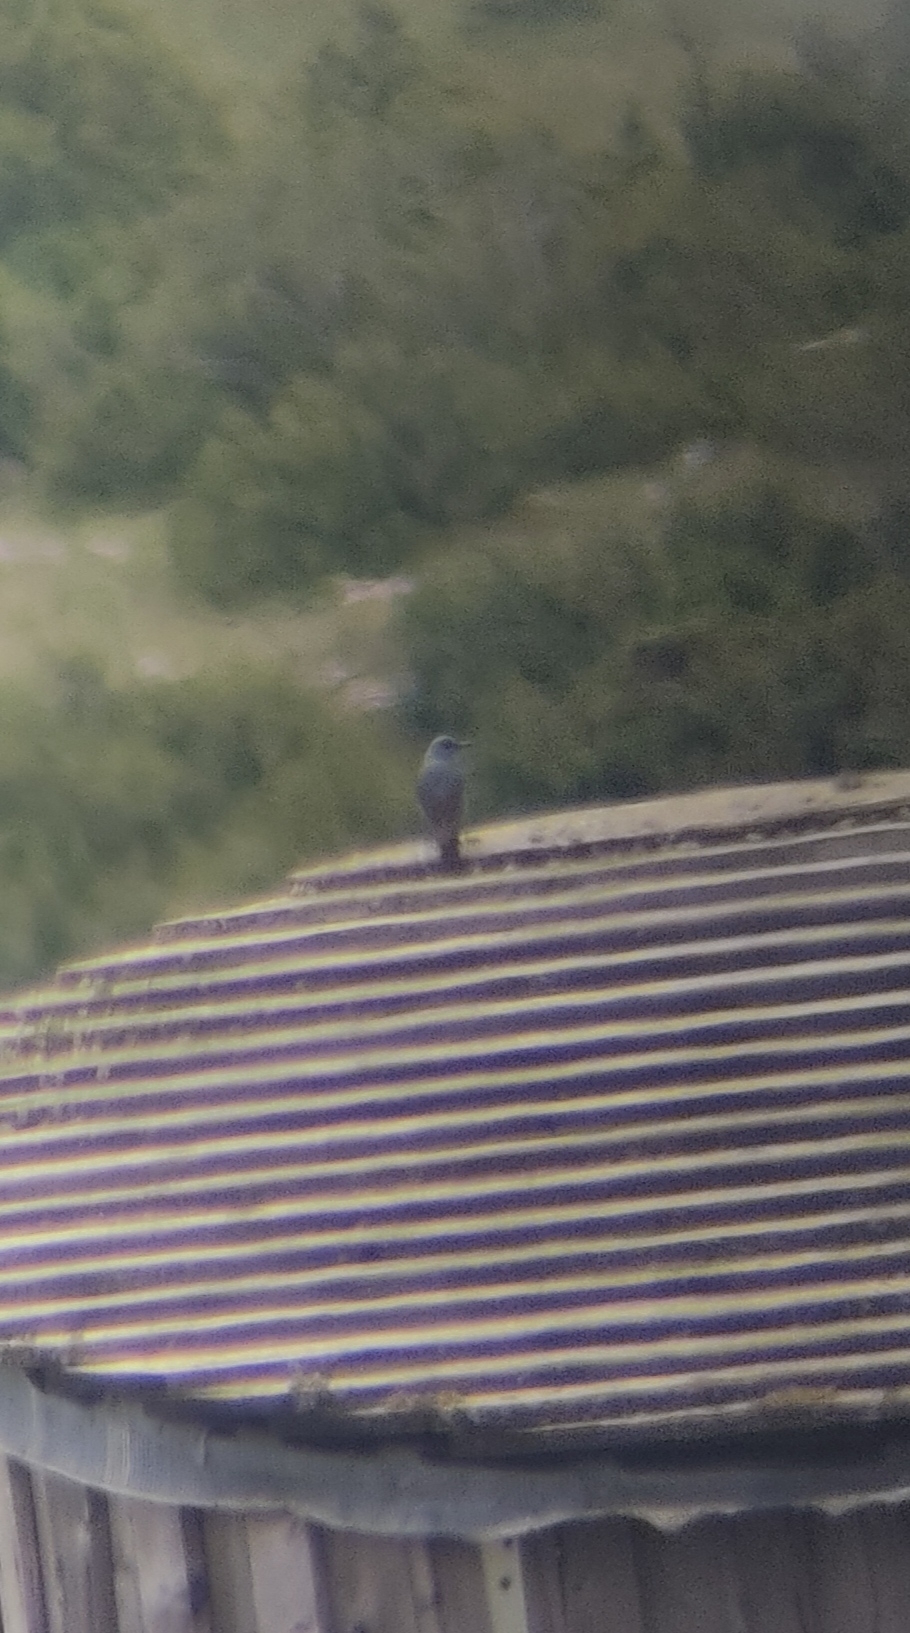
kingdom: Animalia
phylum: Chordata
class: Aves
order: Passeriformes
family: Muscicapidae
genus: Monticola
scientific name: Monticola solitarius
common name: Blue rock thrush
